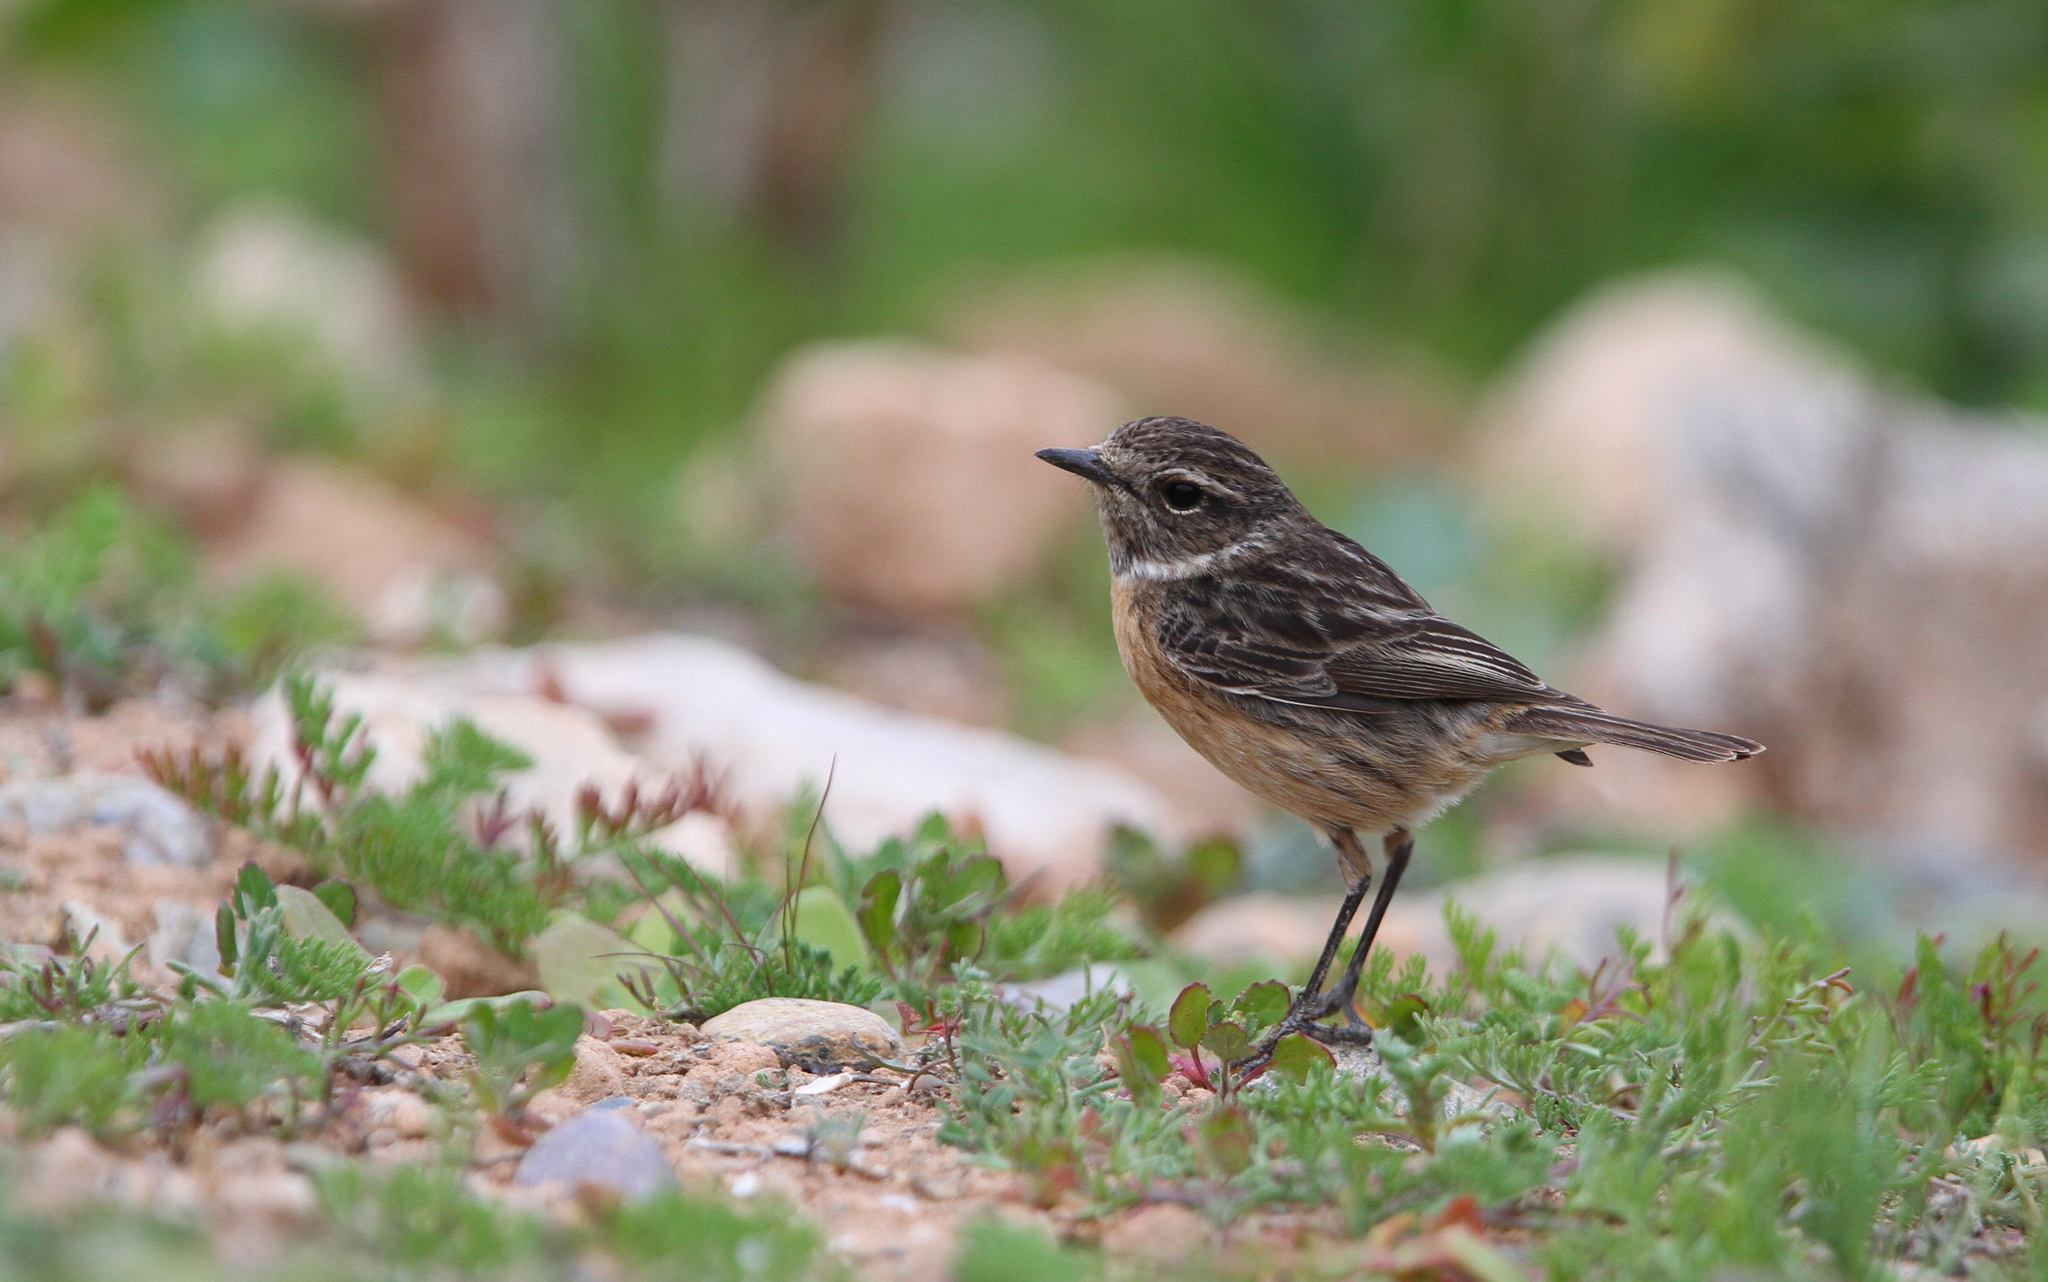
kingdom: Animalia
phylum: Chordata
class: Aves
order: Passeriformes
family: Muscicapidae
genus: Saxicola
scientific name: Saxicola rubicola
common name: European stonechat
